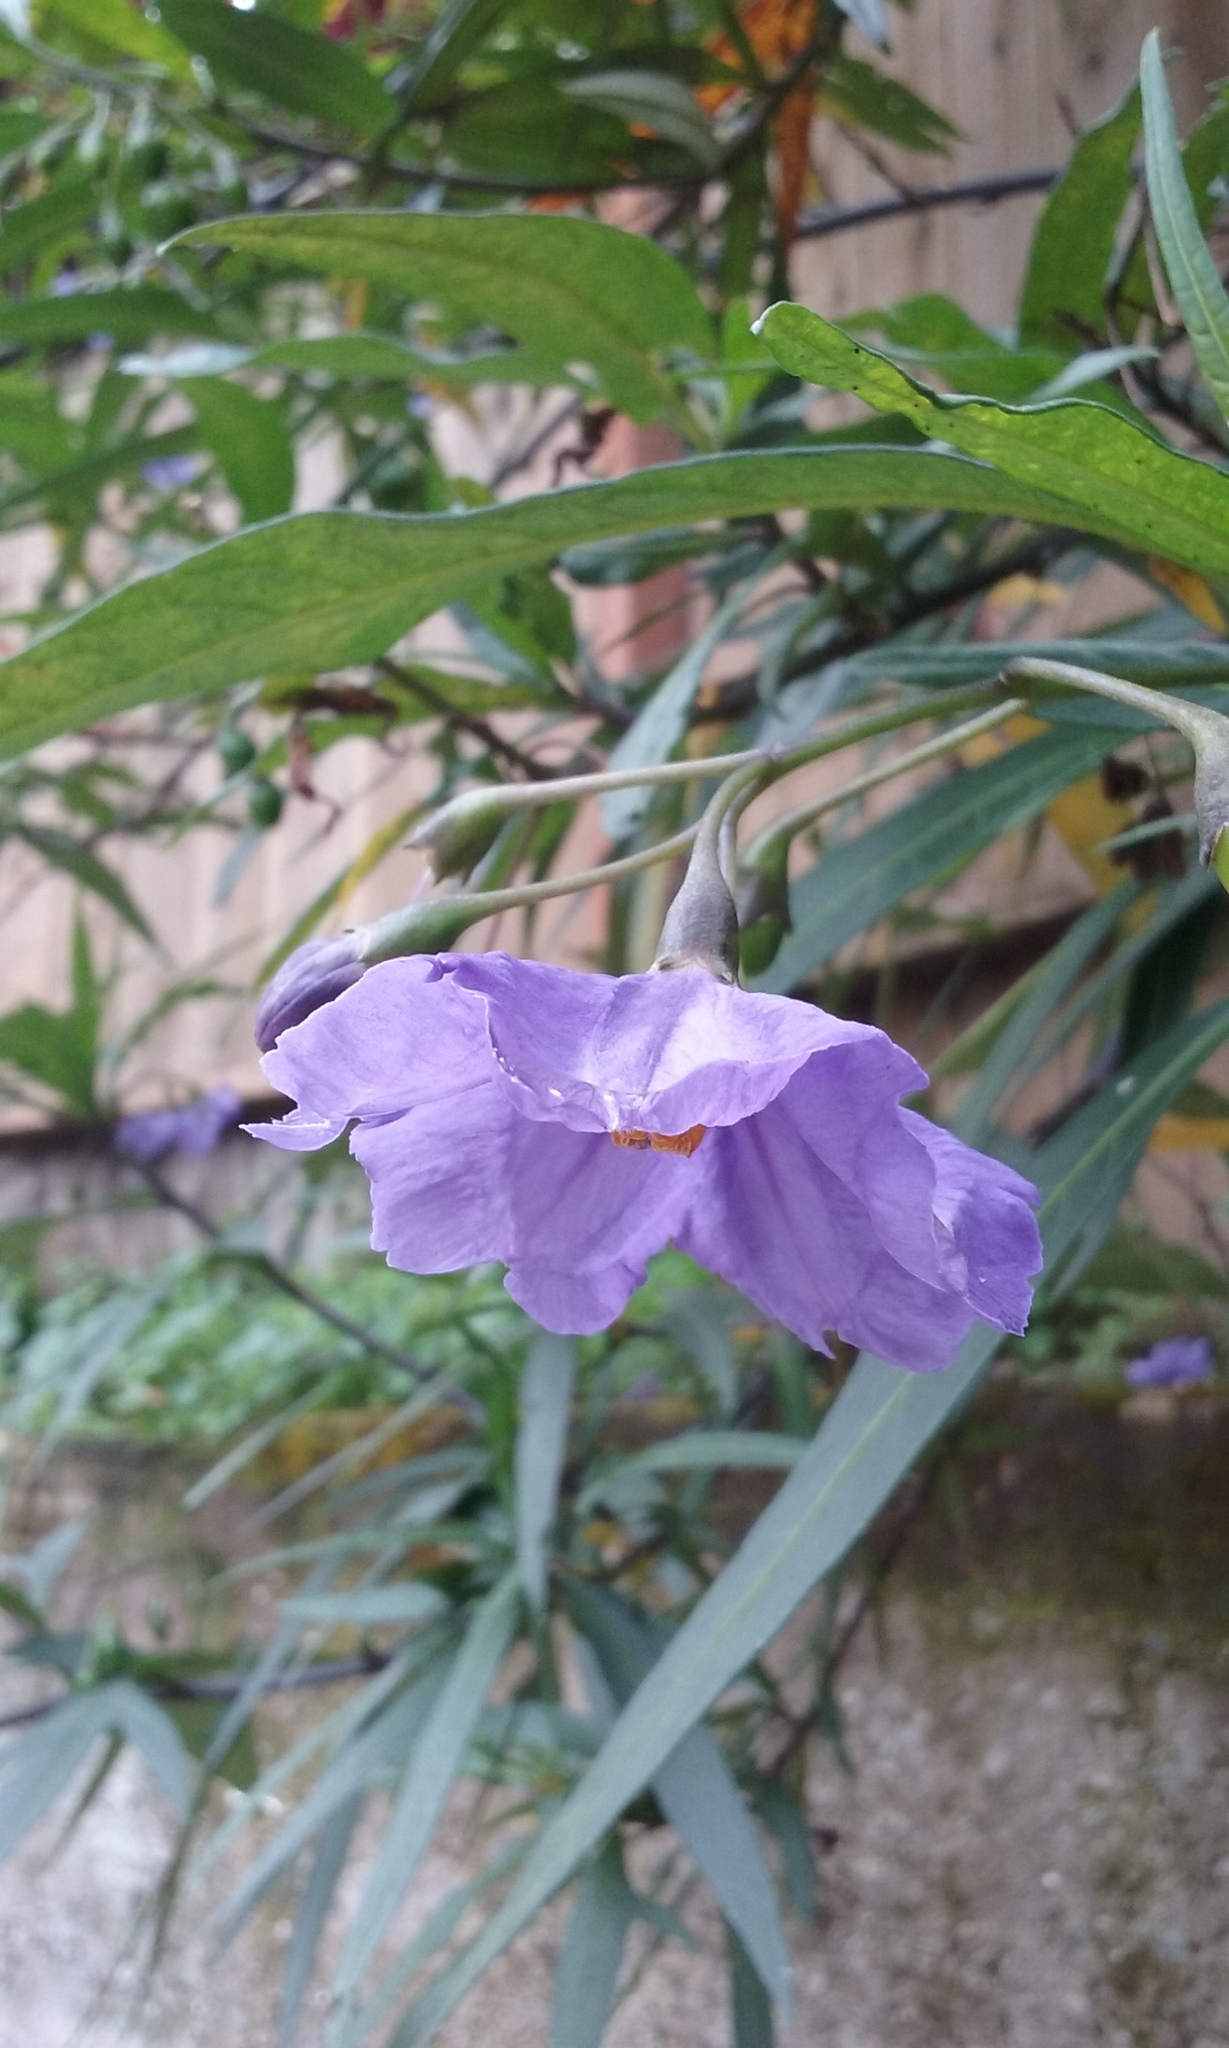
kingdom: Plantae
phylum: Tracheophyta
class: Magnoliopsida
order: Solanales
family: Solanaceae
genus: Solanum
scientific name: Solanum laciniatum
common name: Kangaroo-apple
